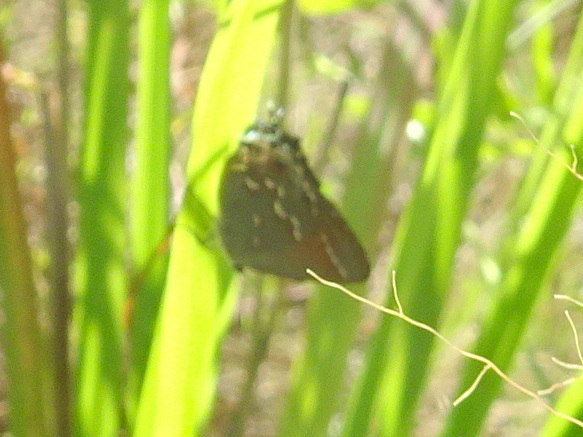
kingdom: Animalia
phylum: Arthropoda
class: Insecta
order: Lepidoptera
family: Lycaenidae
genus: Mitoura
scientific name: Mitoura gryneus
